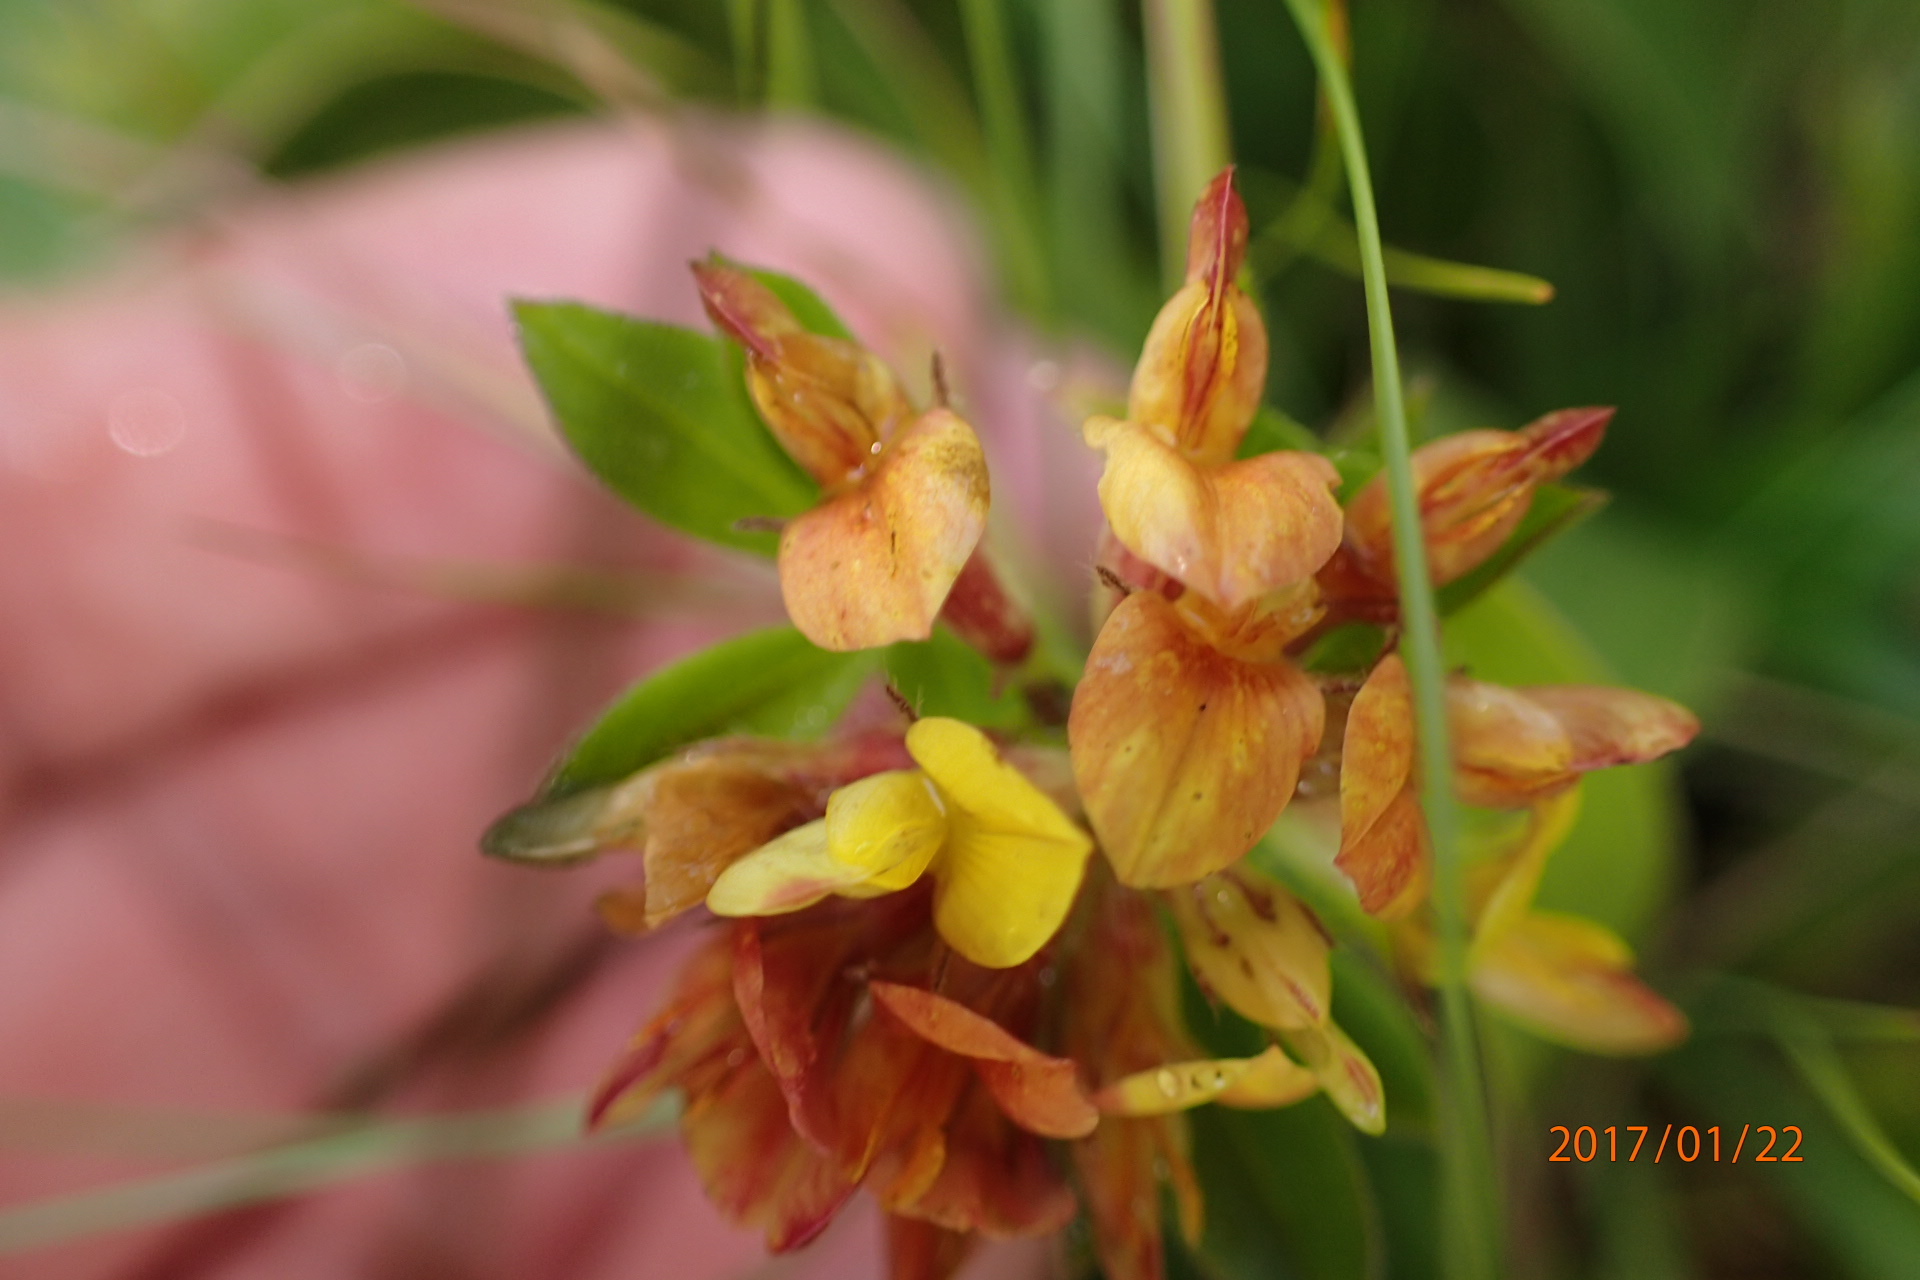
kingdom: Plantae
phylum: Tracheophyta
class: Magnoliopsida
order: Fabales
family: Fabaceae
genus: Leobordea
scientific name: Leobordea eriantha
